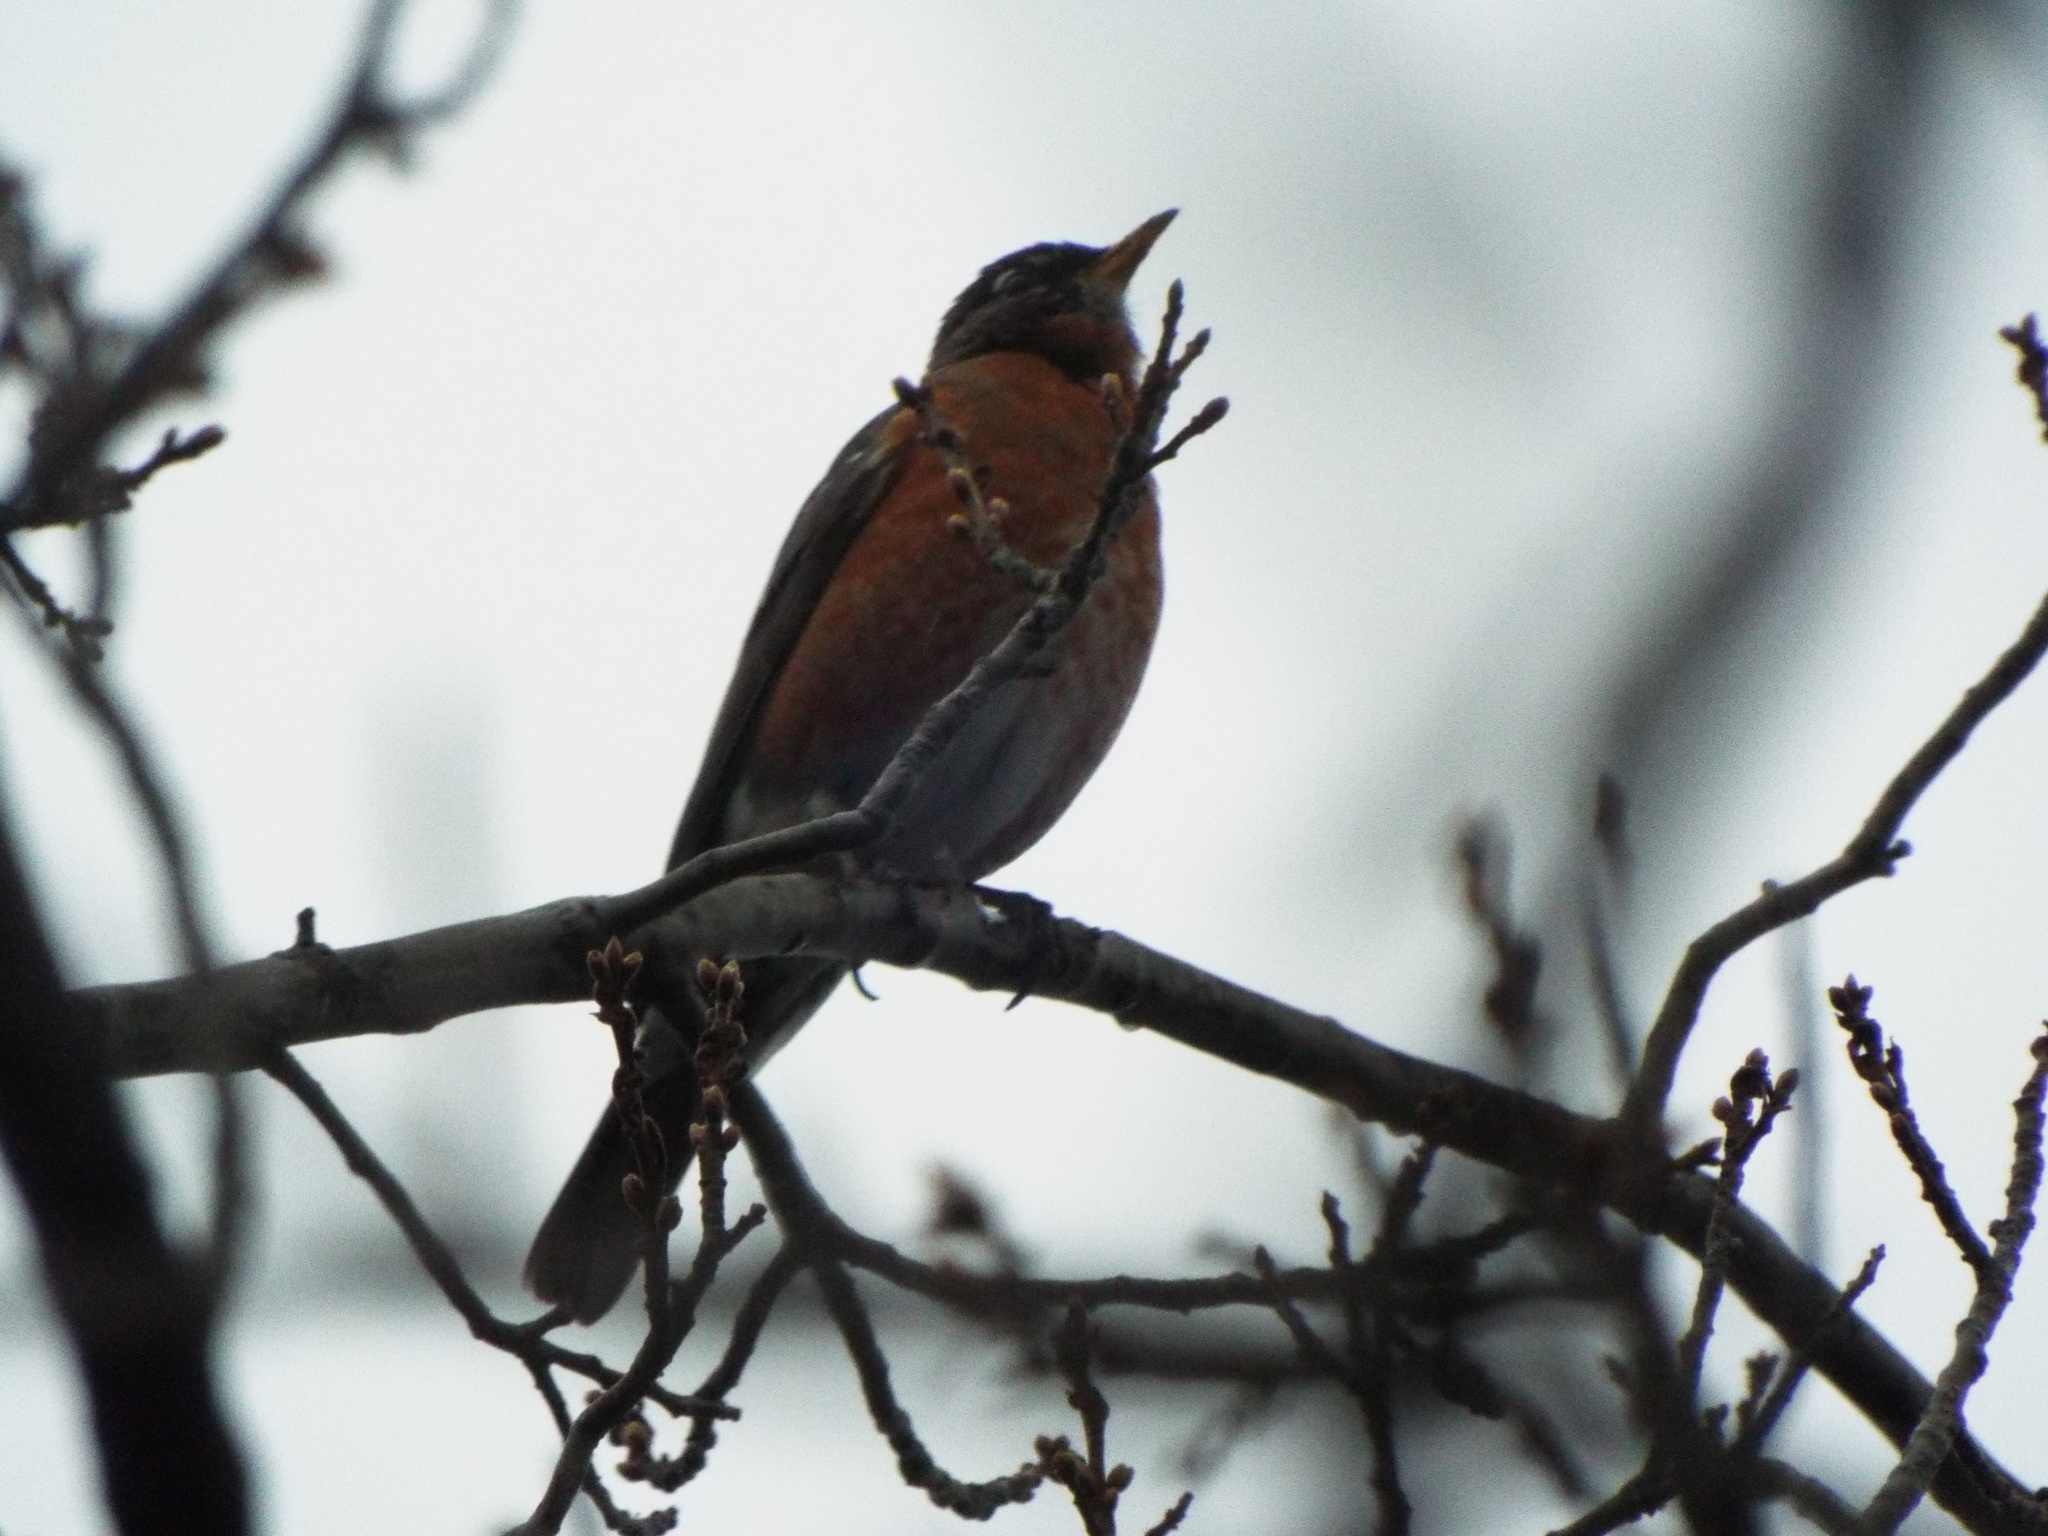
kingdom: Animalia
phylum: Chordata
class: Aves
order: Passeriformes
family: Turdidae
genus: Turdus
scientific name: Turdus migratorius
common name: American robin
